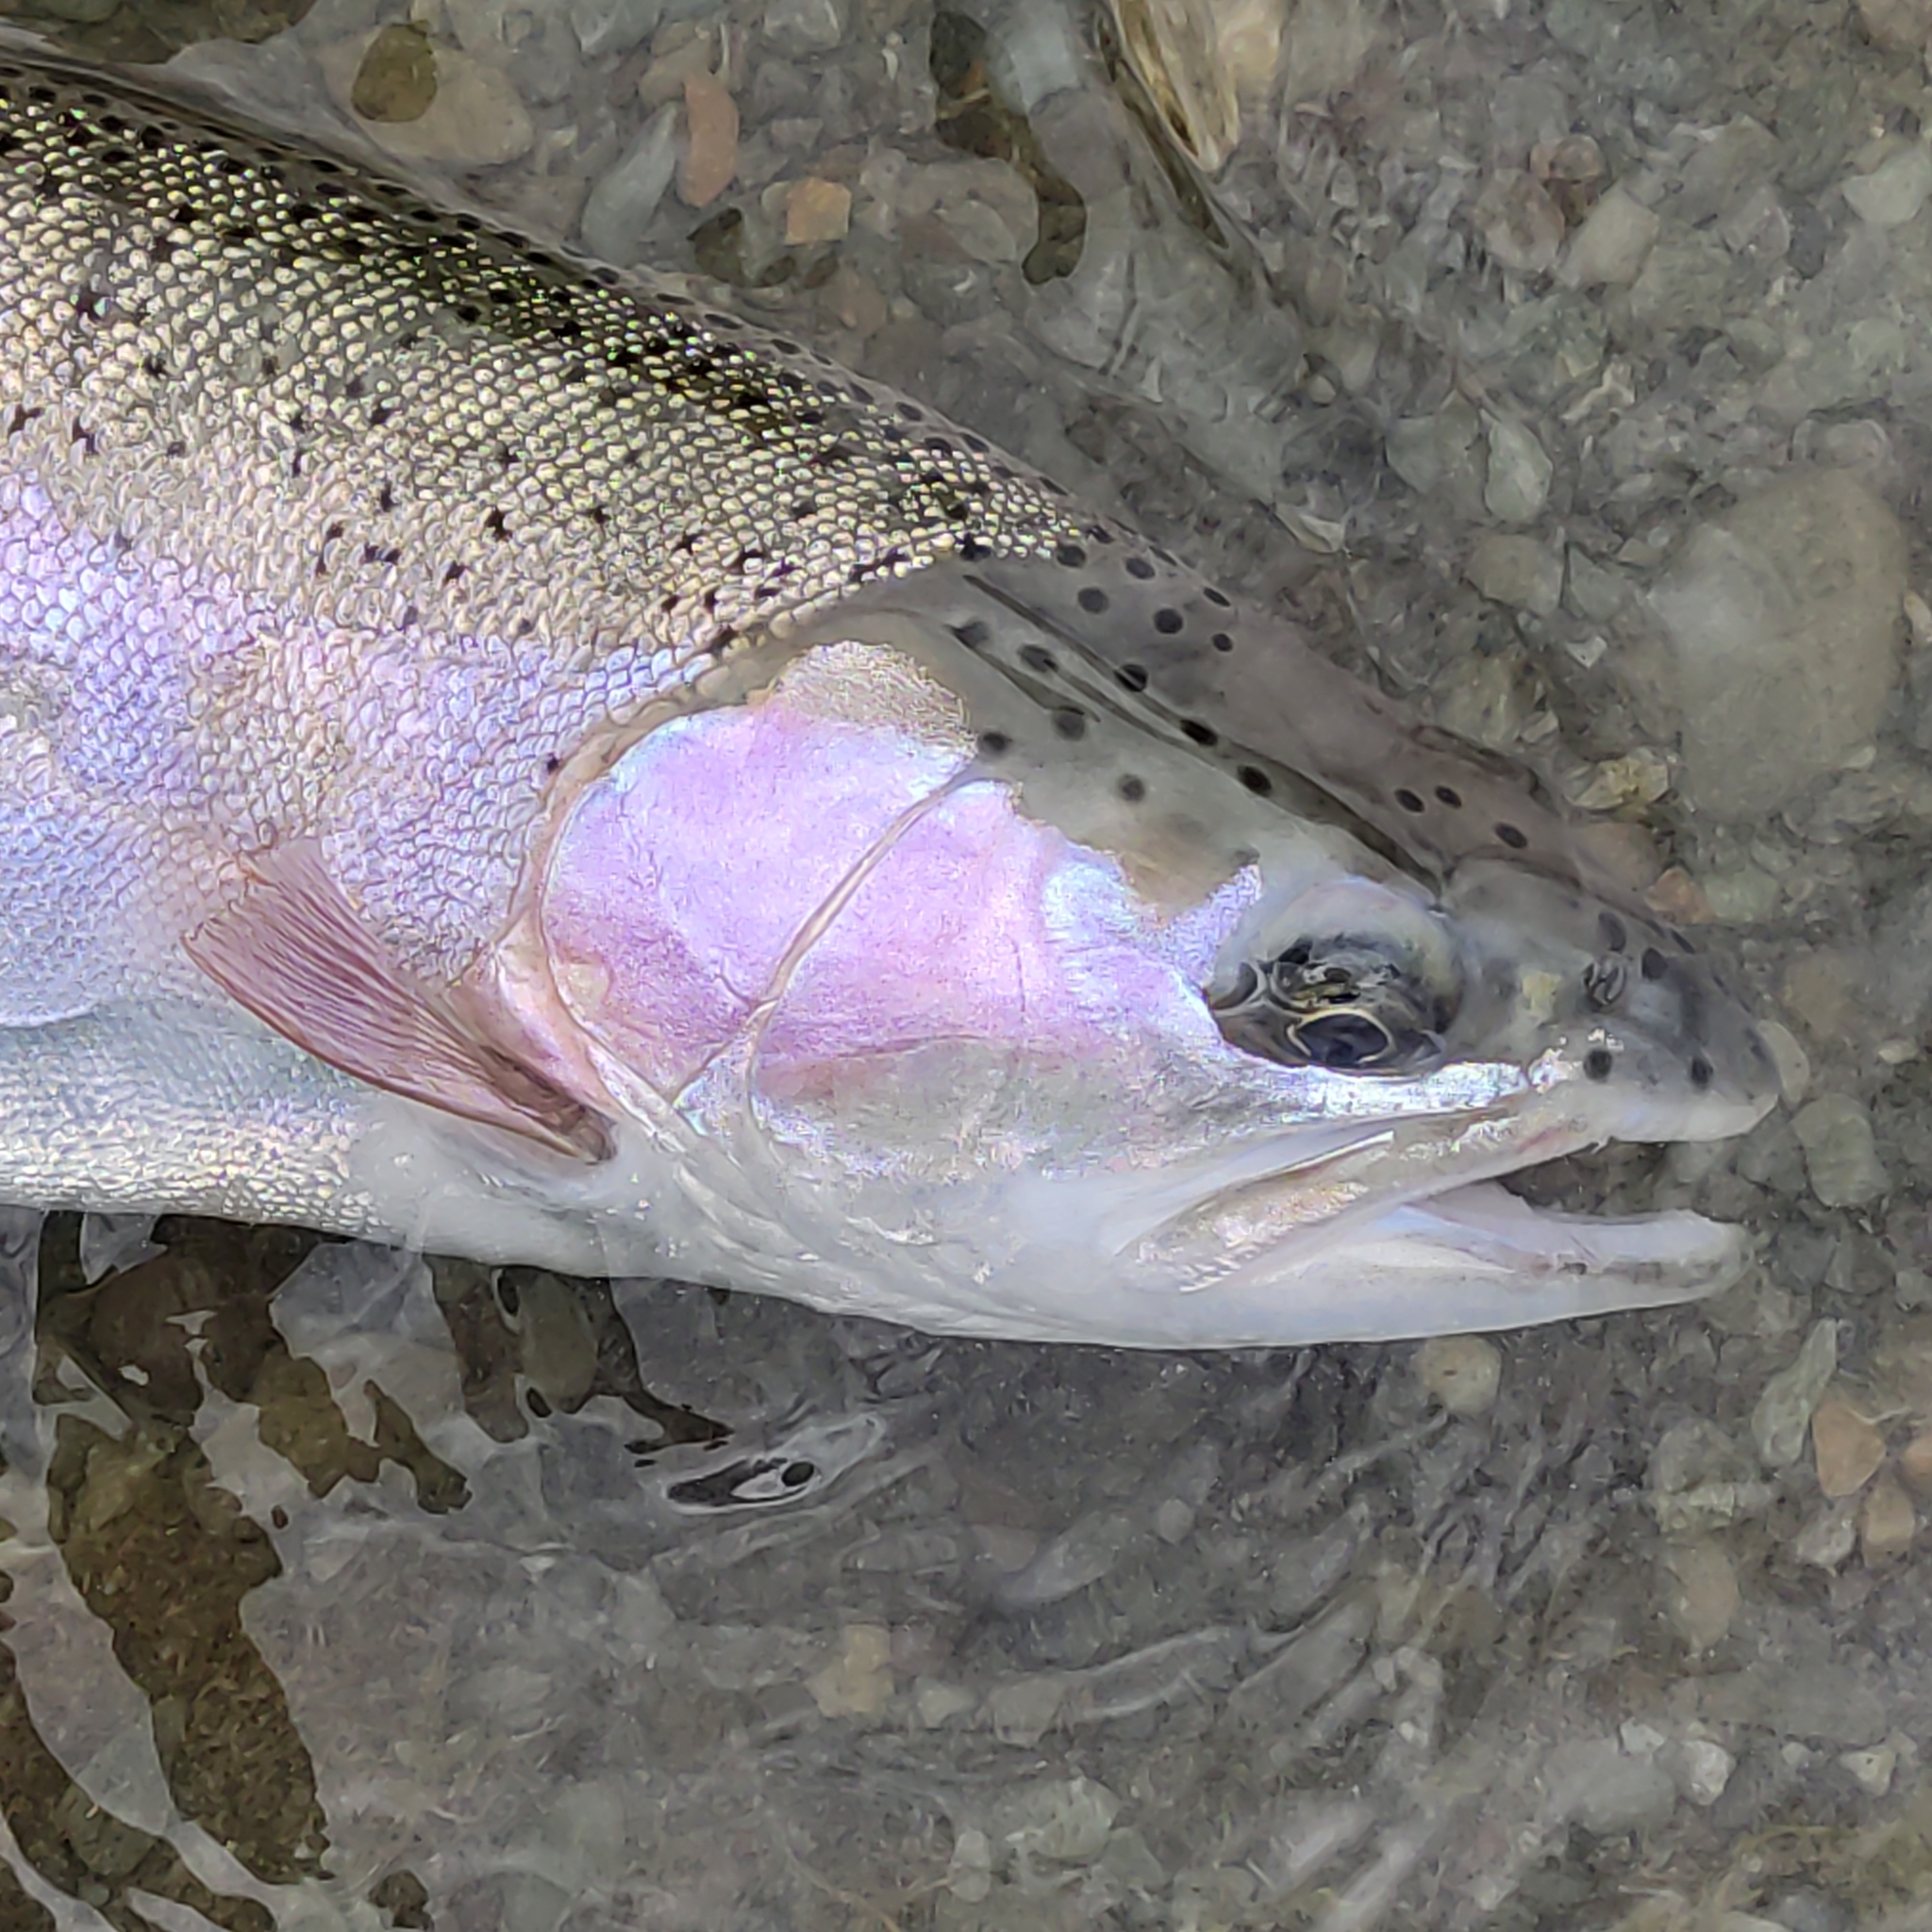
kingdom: Animalia
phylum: Chordata
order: Salmoniformes
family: Salmonidae
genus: Oncorhynchus
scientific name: Oncorhynchus mykiss
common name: Rainbow trout
